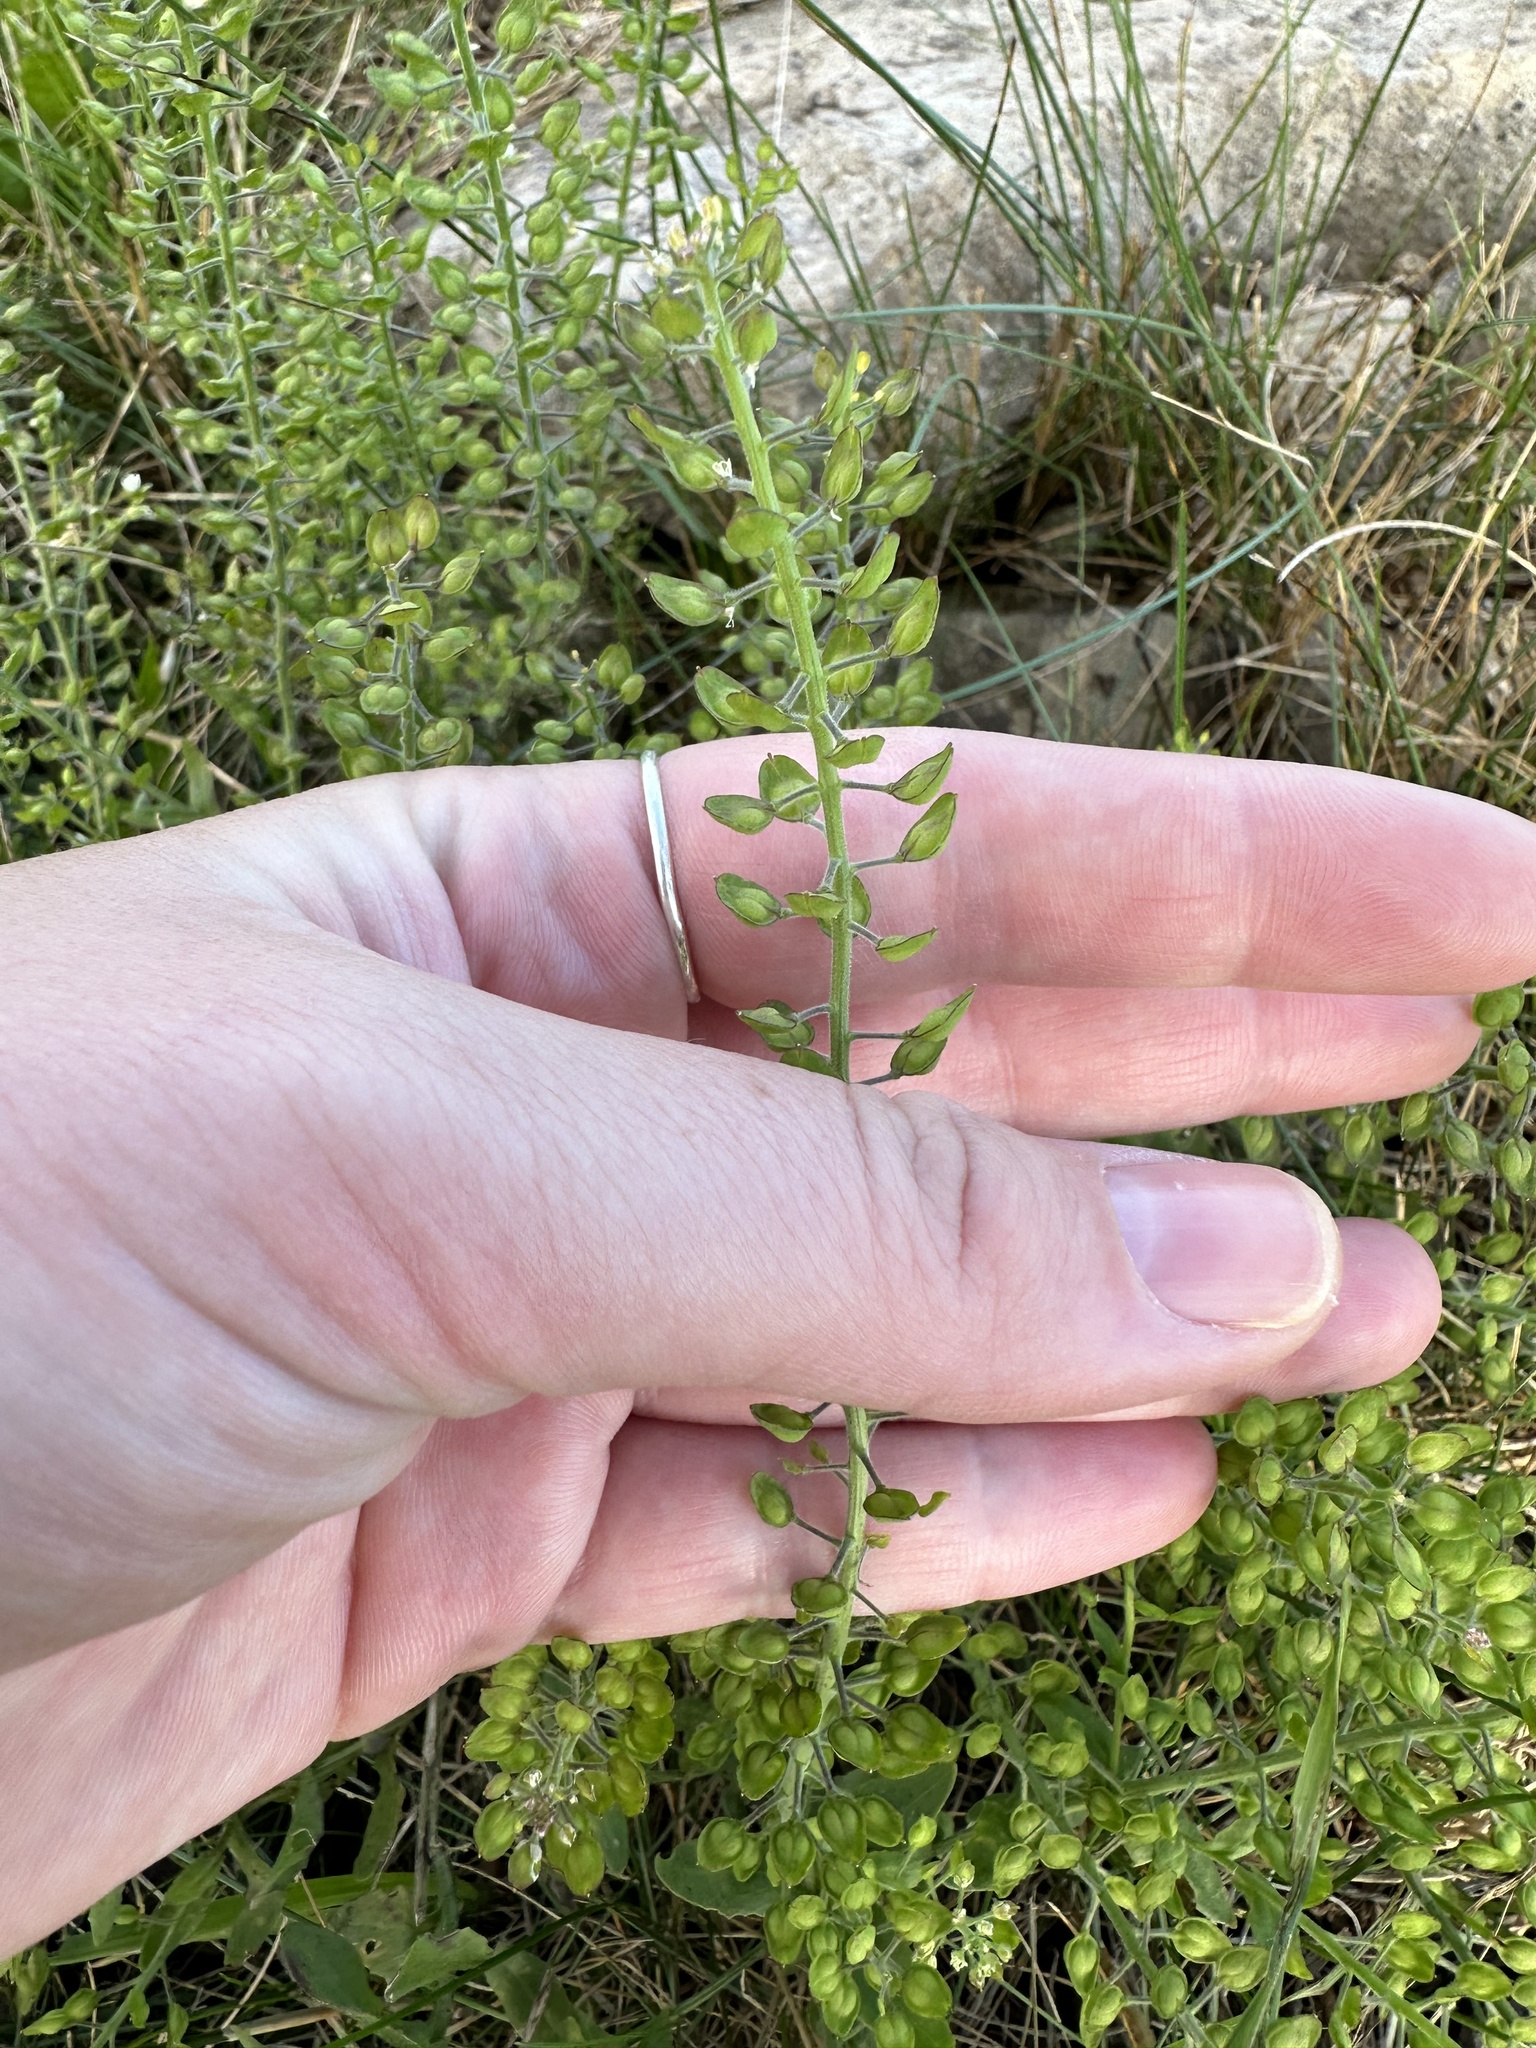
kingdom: Plantae
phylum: Tracheophyta
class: Magnoliopsida
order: Brassicales
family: Brassicaceae
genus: Lepidium
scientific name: Lepidium campestre
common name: Field pepperwort
